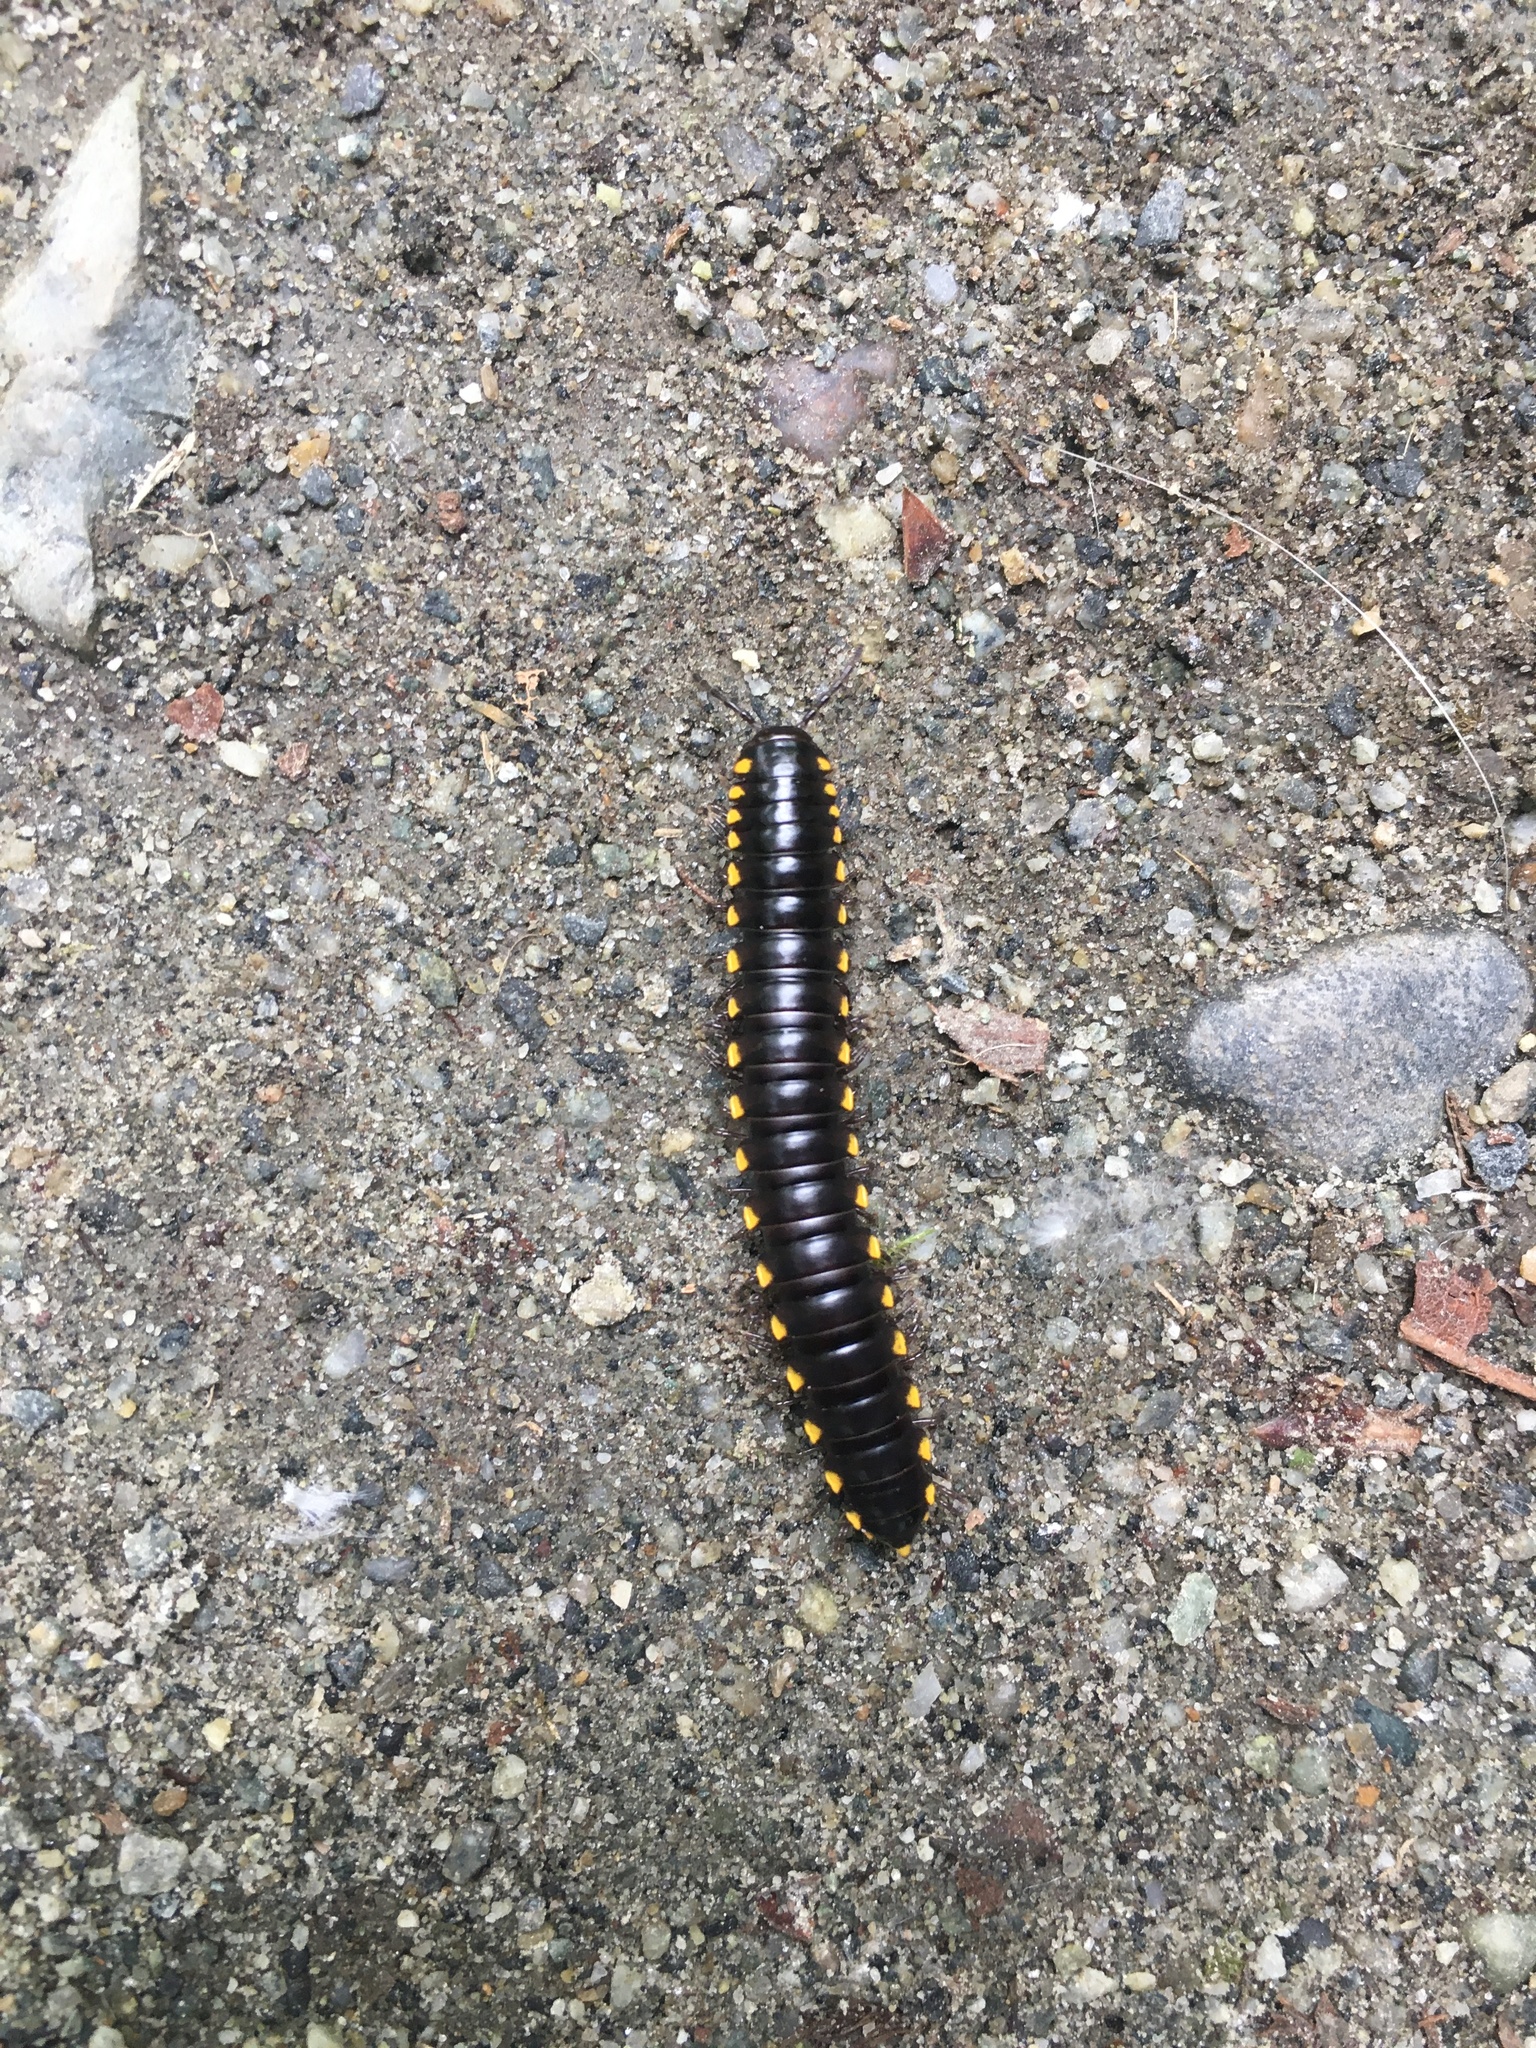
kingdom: Animalia
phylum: Arthropoda
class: Diplopoda
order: Polydesmida
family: Xystodesmidae
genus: Harpaphe
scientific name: Harpaphe haydeniana
